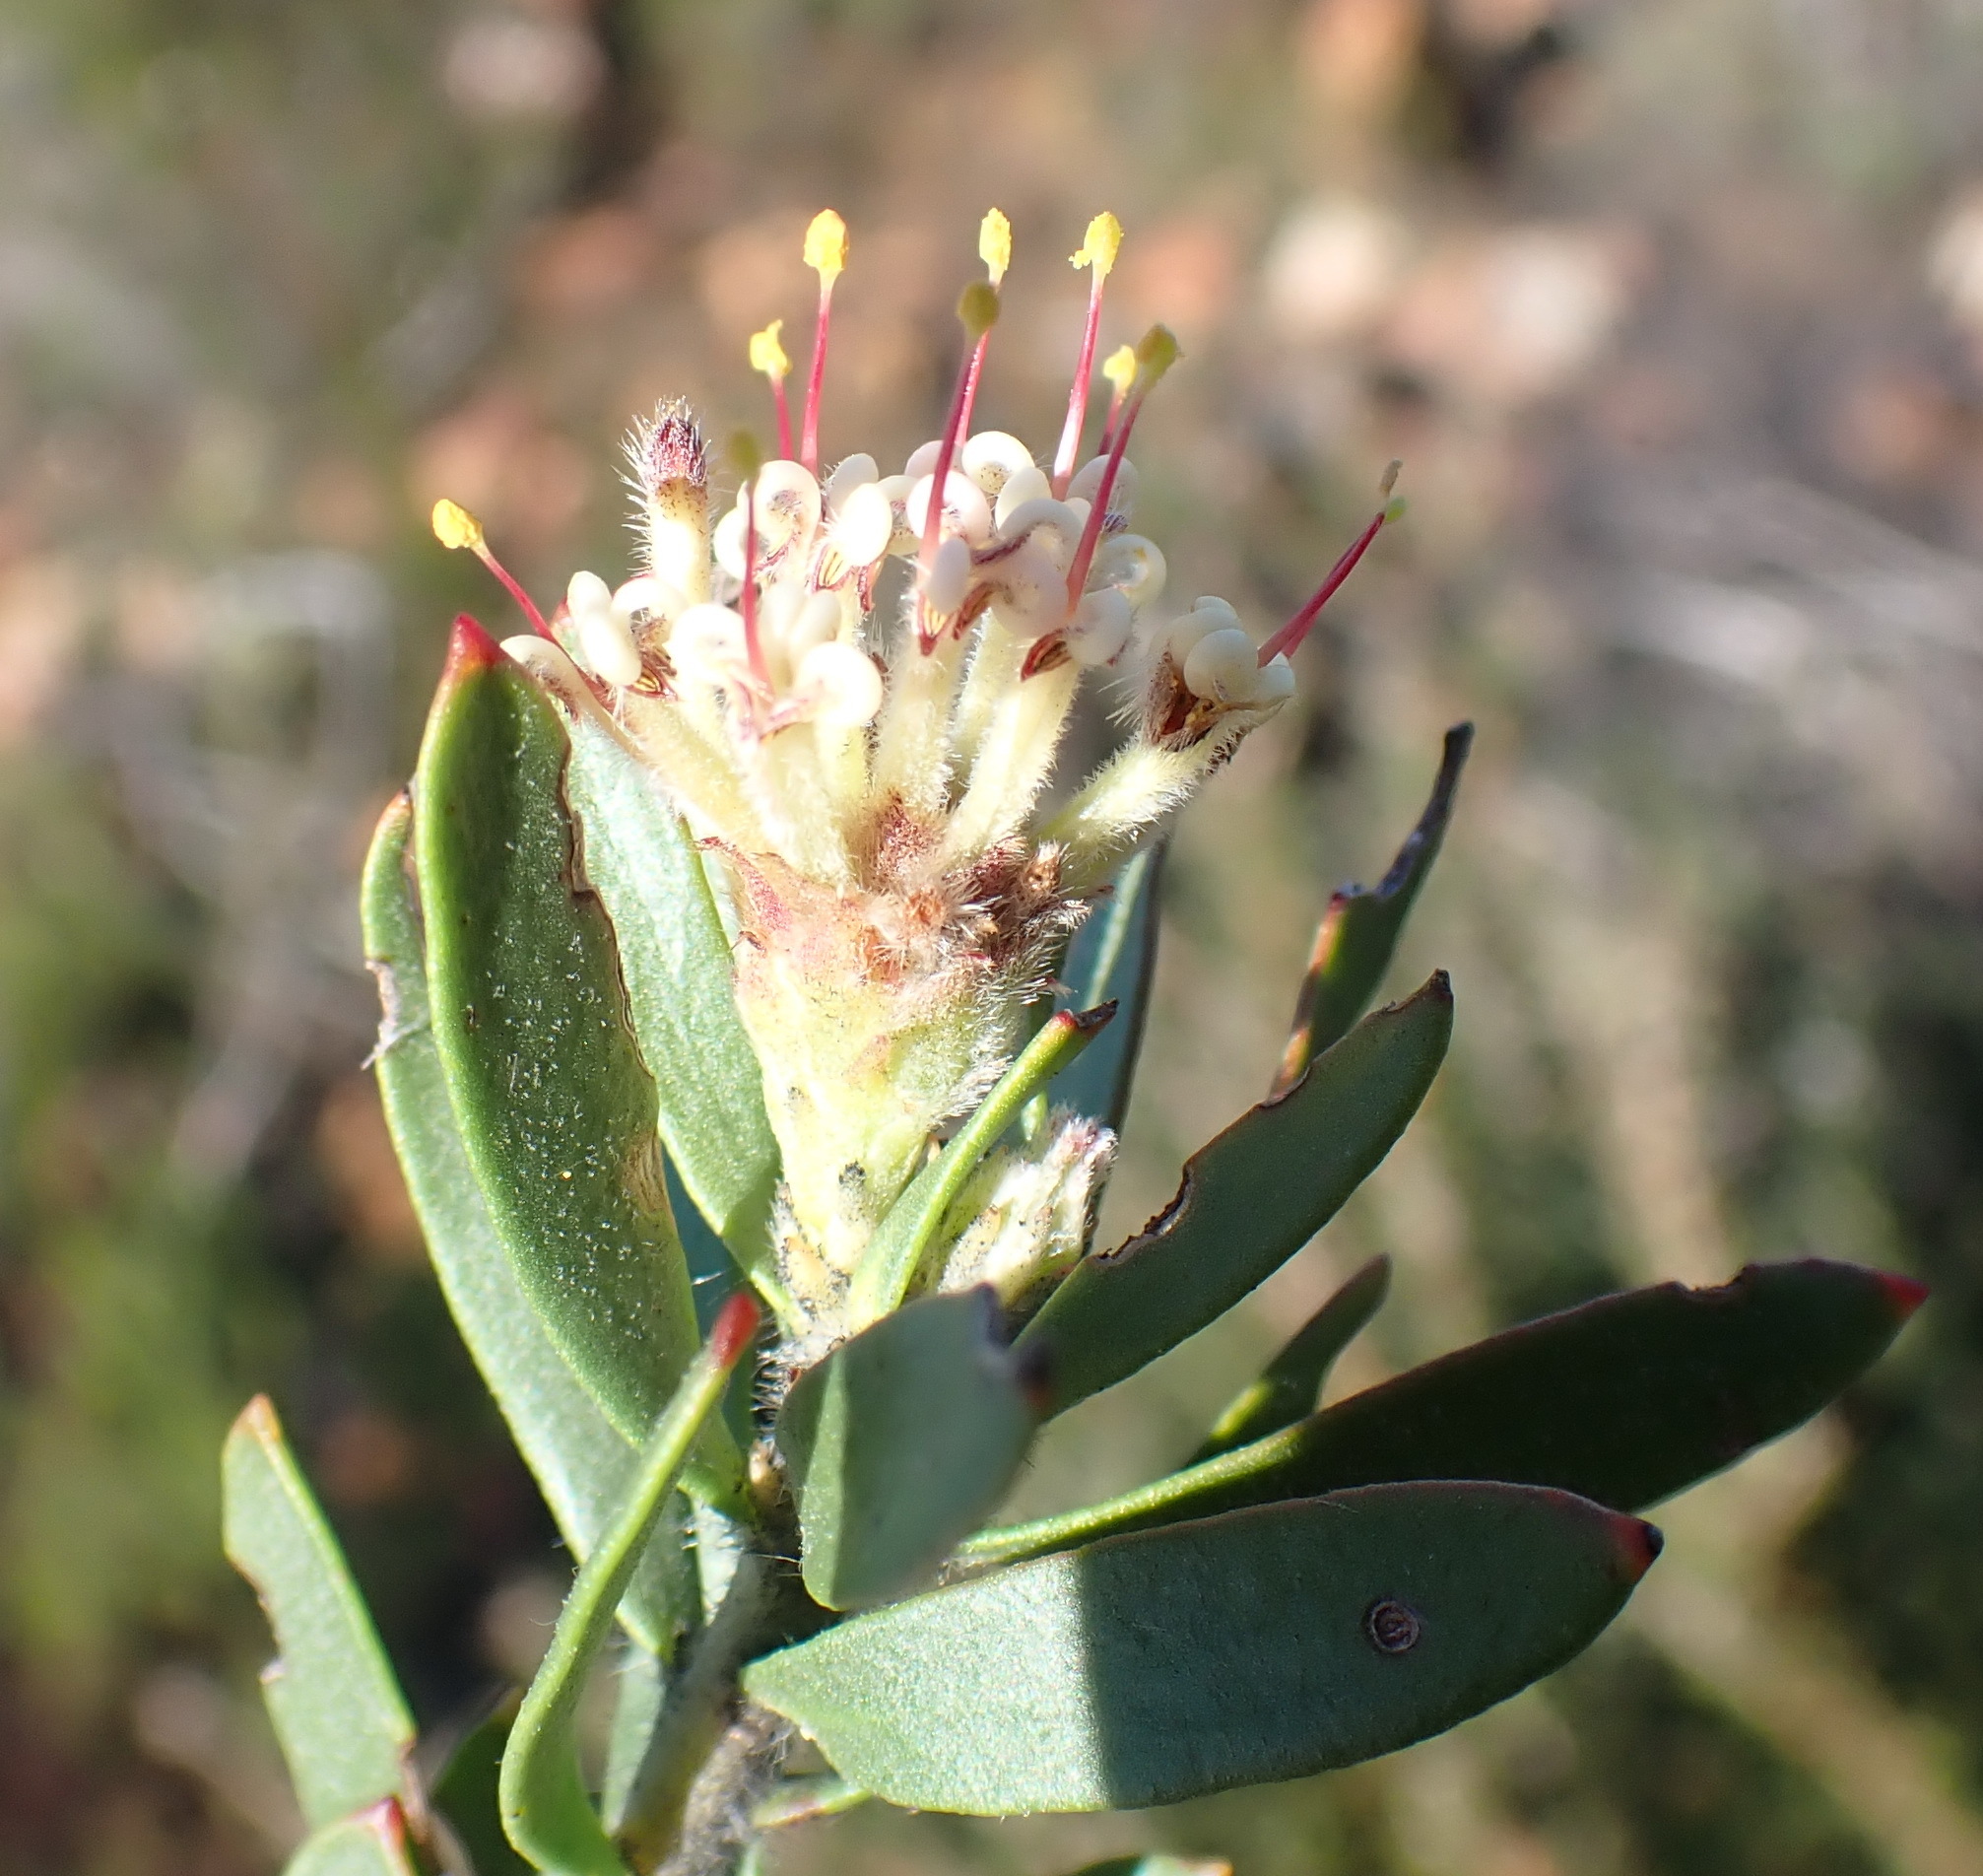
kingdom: Plantae
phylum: Tracheophyta
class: Magnoliopsida
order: Proteales
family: Proteaceae
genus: Leucospermum
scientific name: Leucospermum royenifolium
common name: Eastern pincushion
